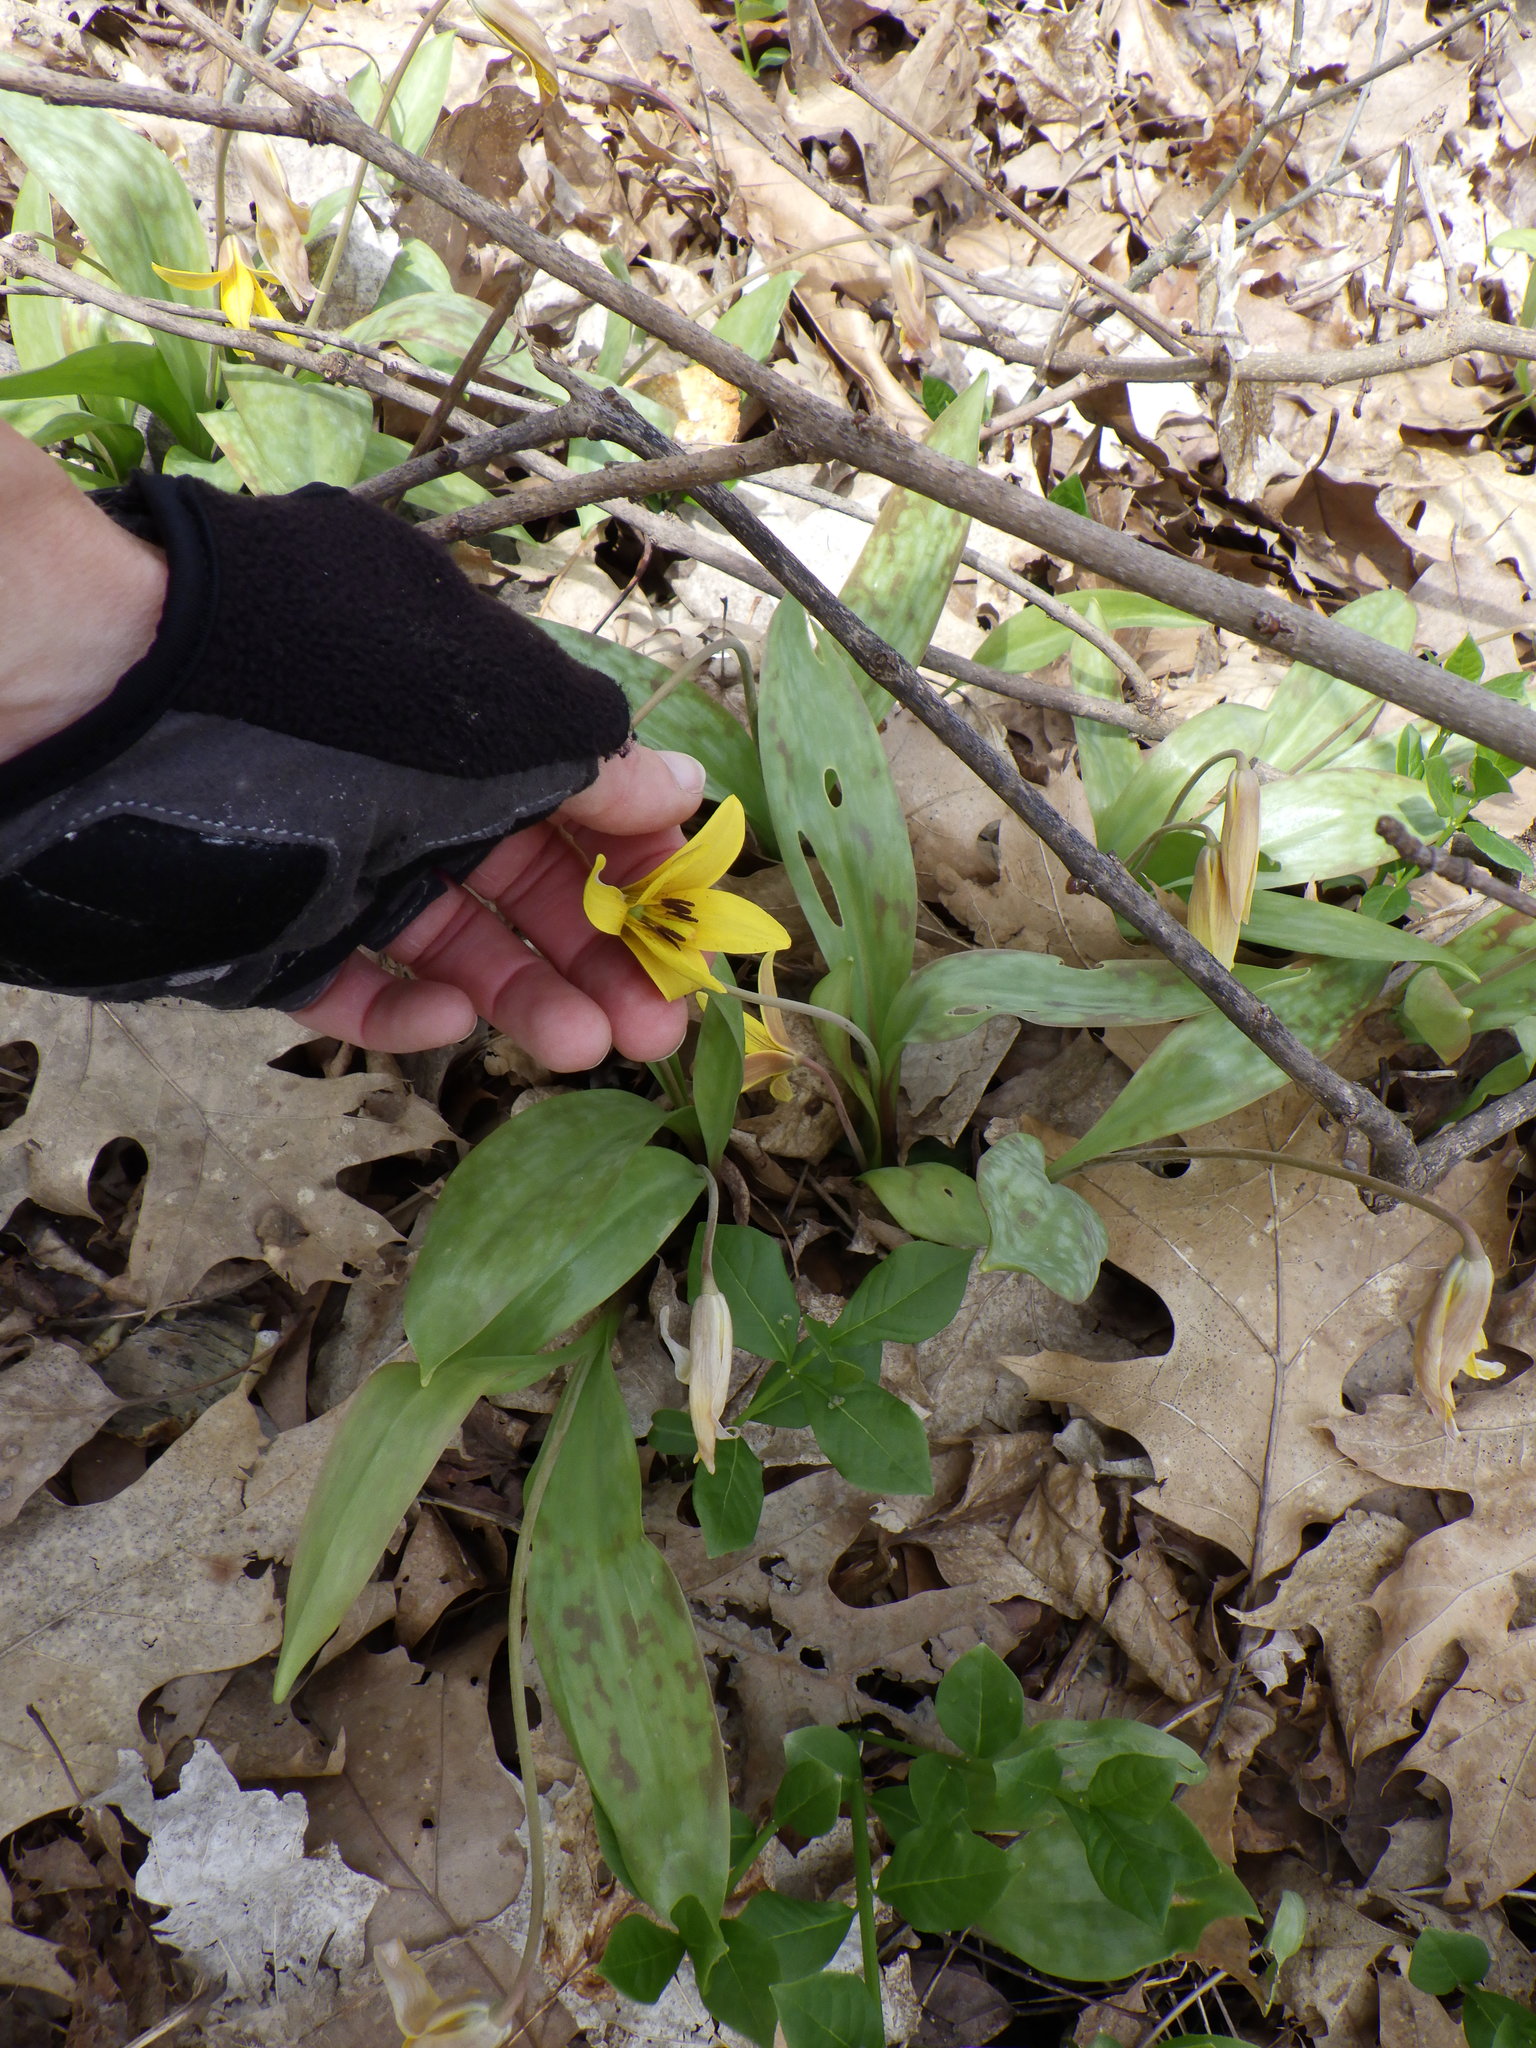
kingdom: Plantae
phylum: Tracheophyta
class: Liliopsida
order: Liliales
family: Liliaceae
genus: Erythronium
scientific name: Erythronium americanum
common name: Yellow adder's-tongue
